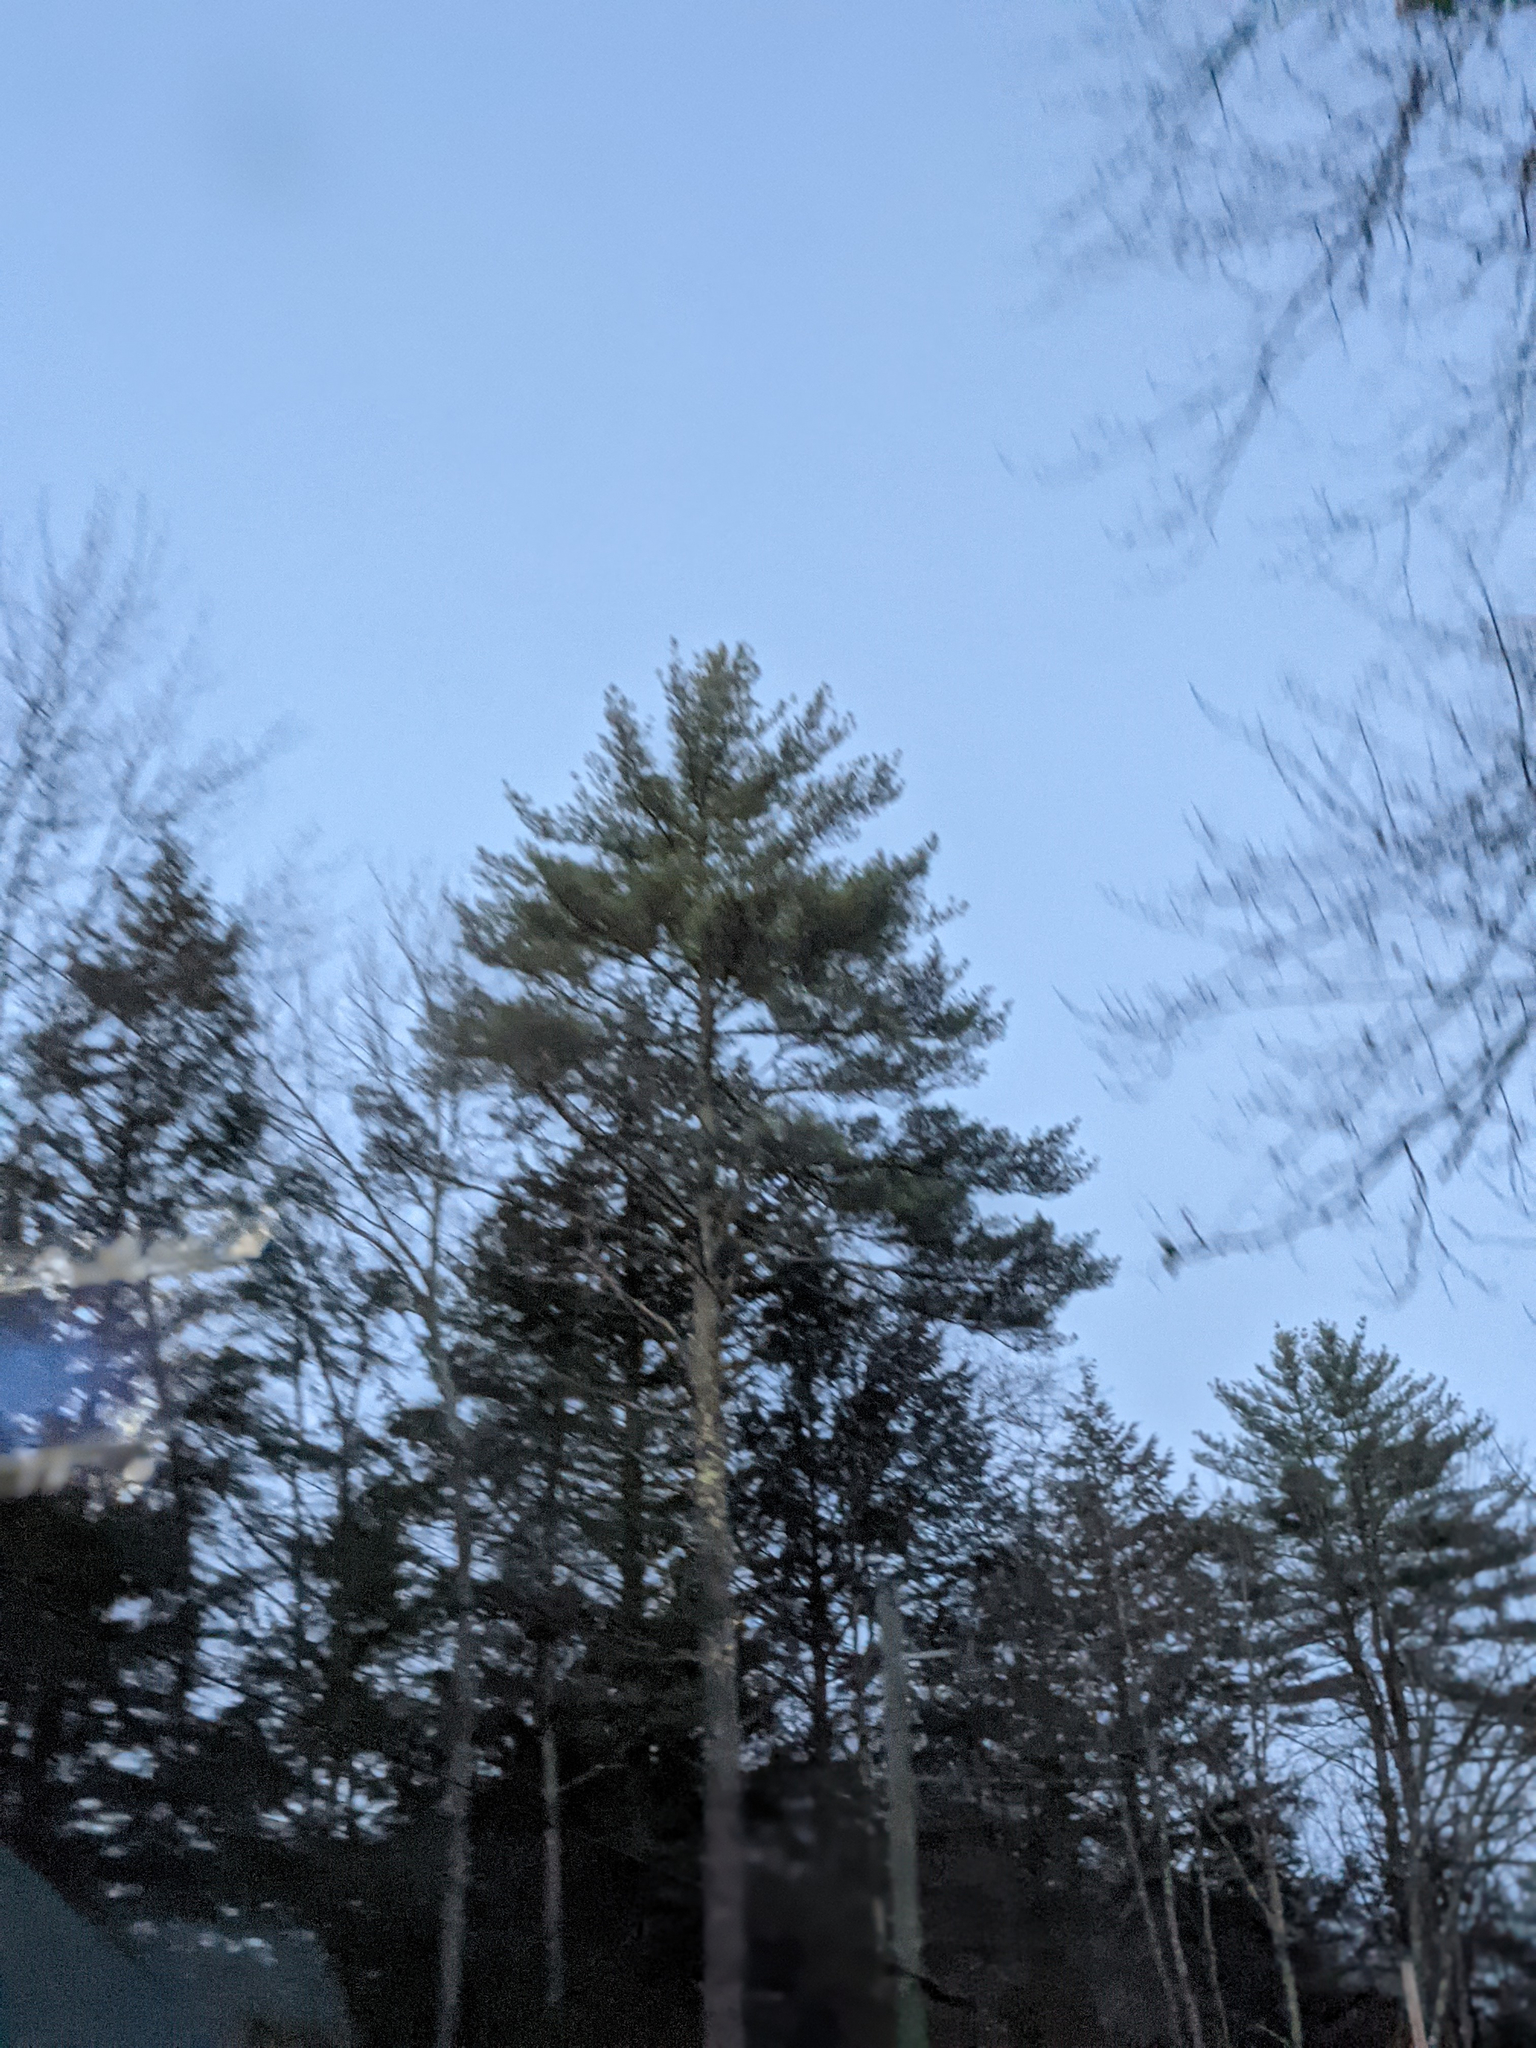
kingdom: Plantae
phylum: Tracheophyta
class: Pinopsida
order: Pinales
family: Pinaceae
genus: Pinus
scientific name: Pinus strobus
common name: Weymouth pine
